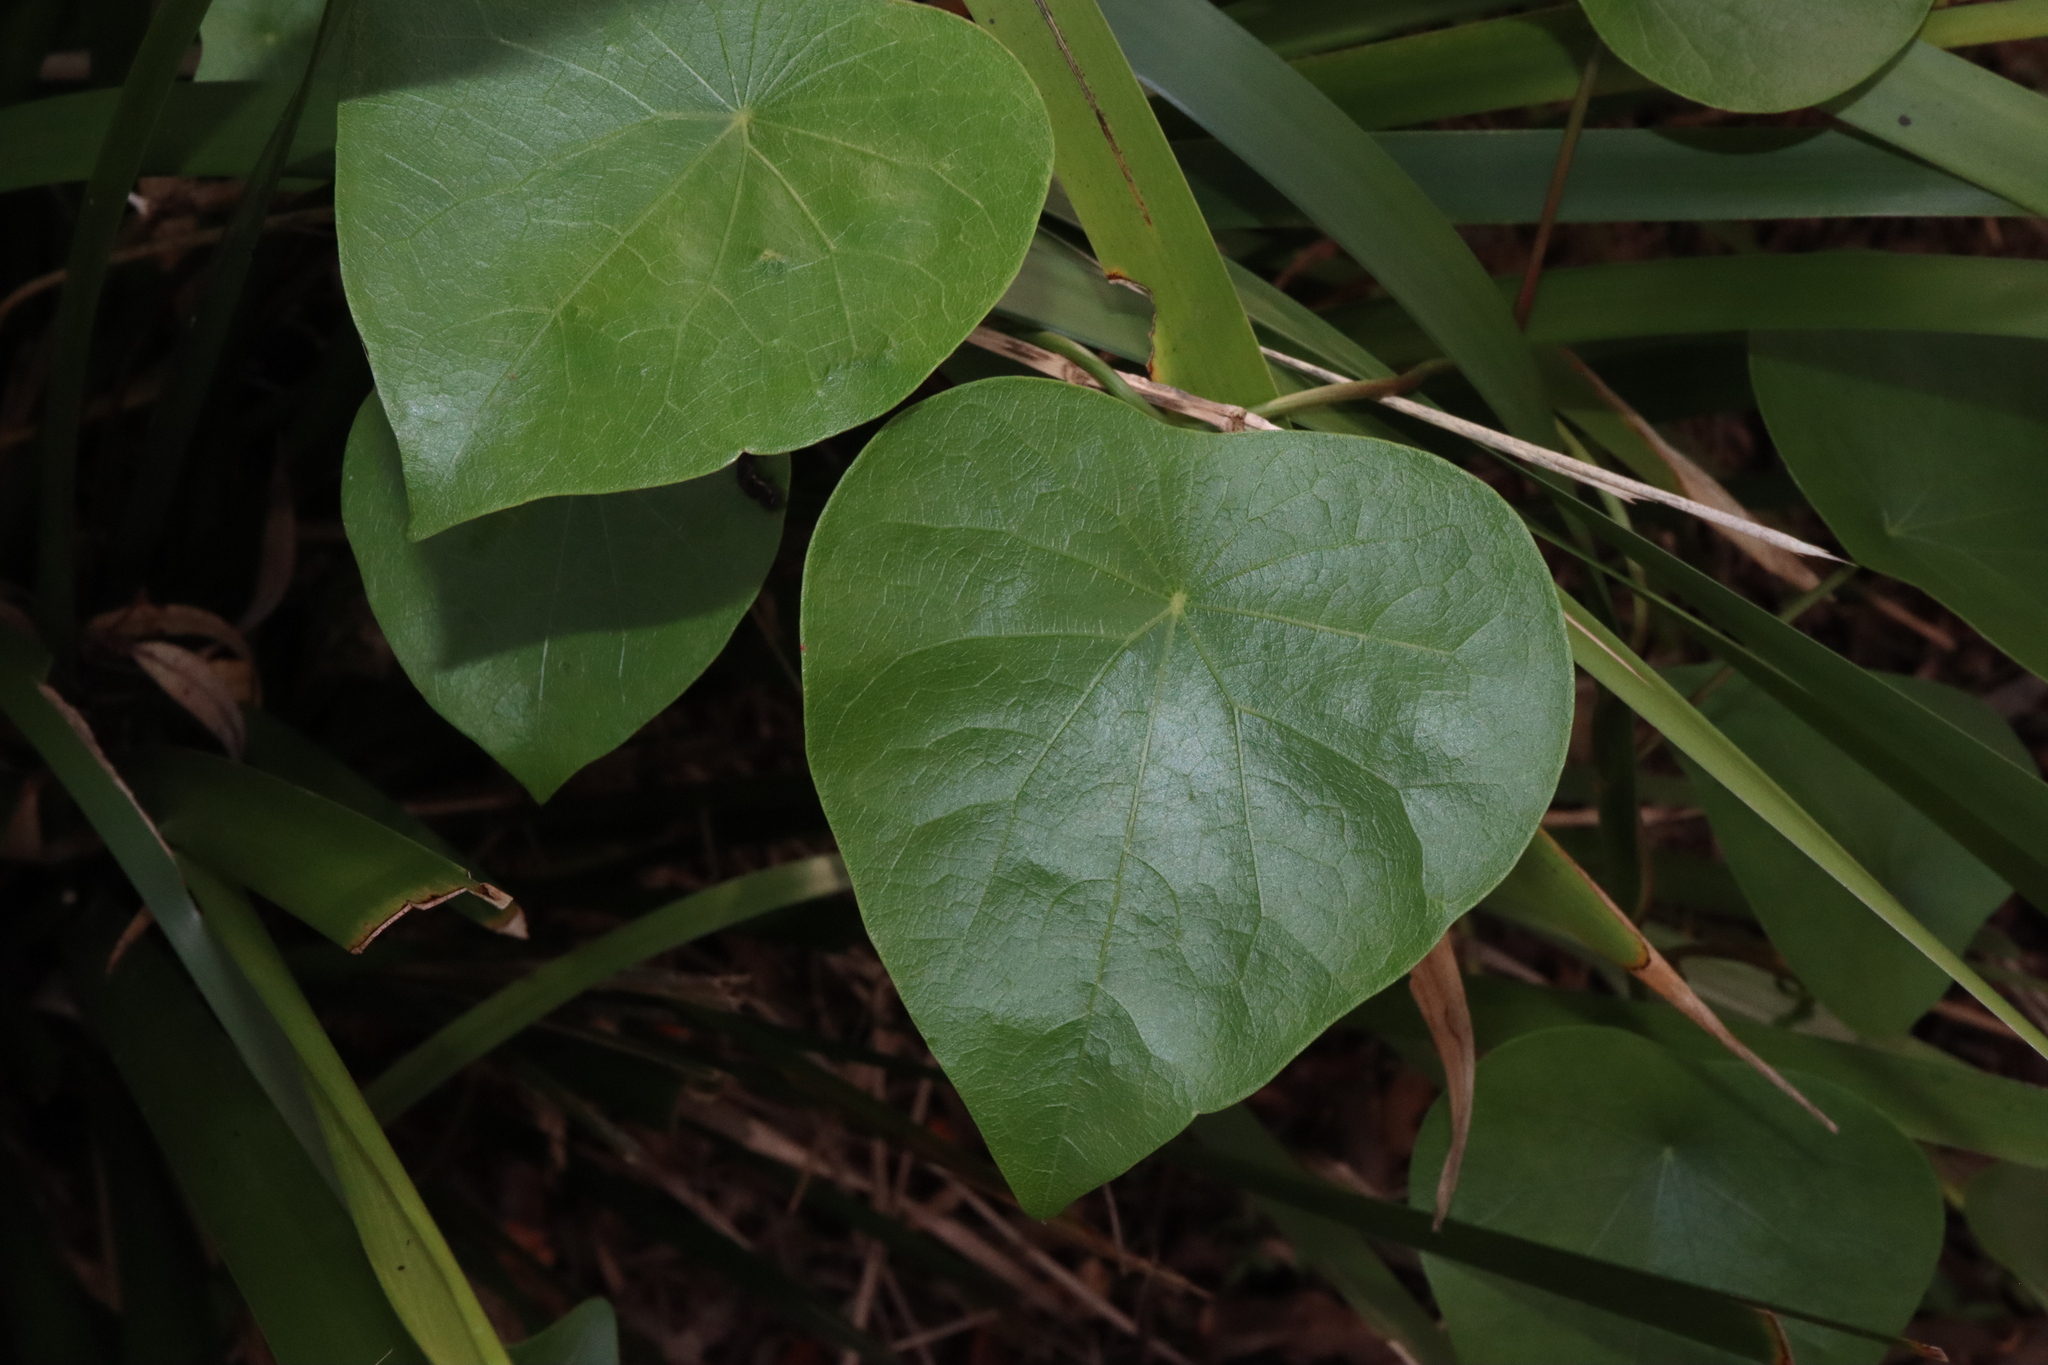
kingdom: Plantae
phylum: Tracheophyta
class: Magnoliopsida
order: Ranunculales
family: Menispermaceae
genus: Stephania
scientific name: Stephania japonica
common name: Snake vine
